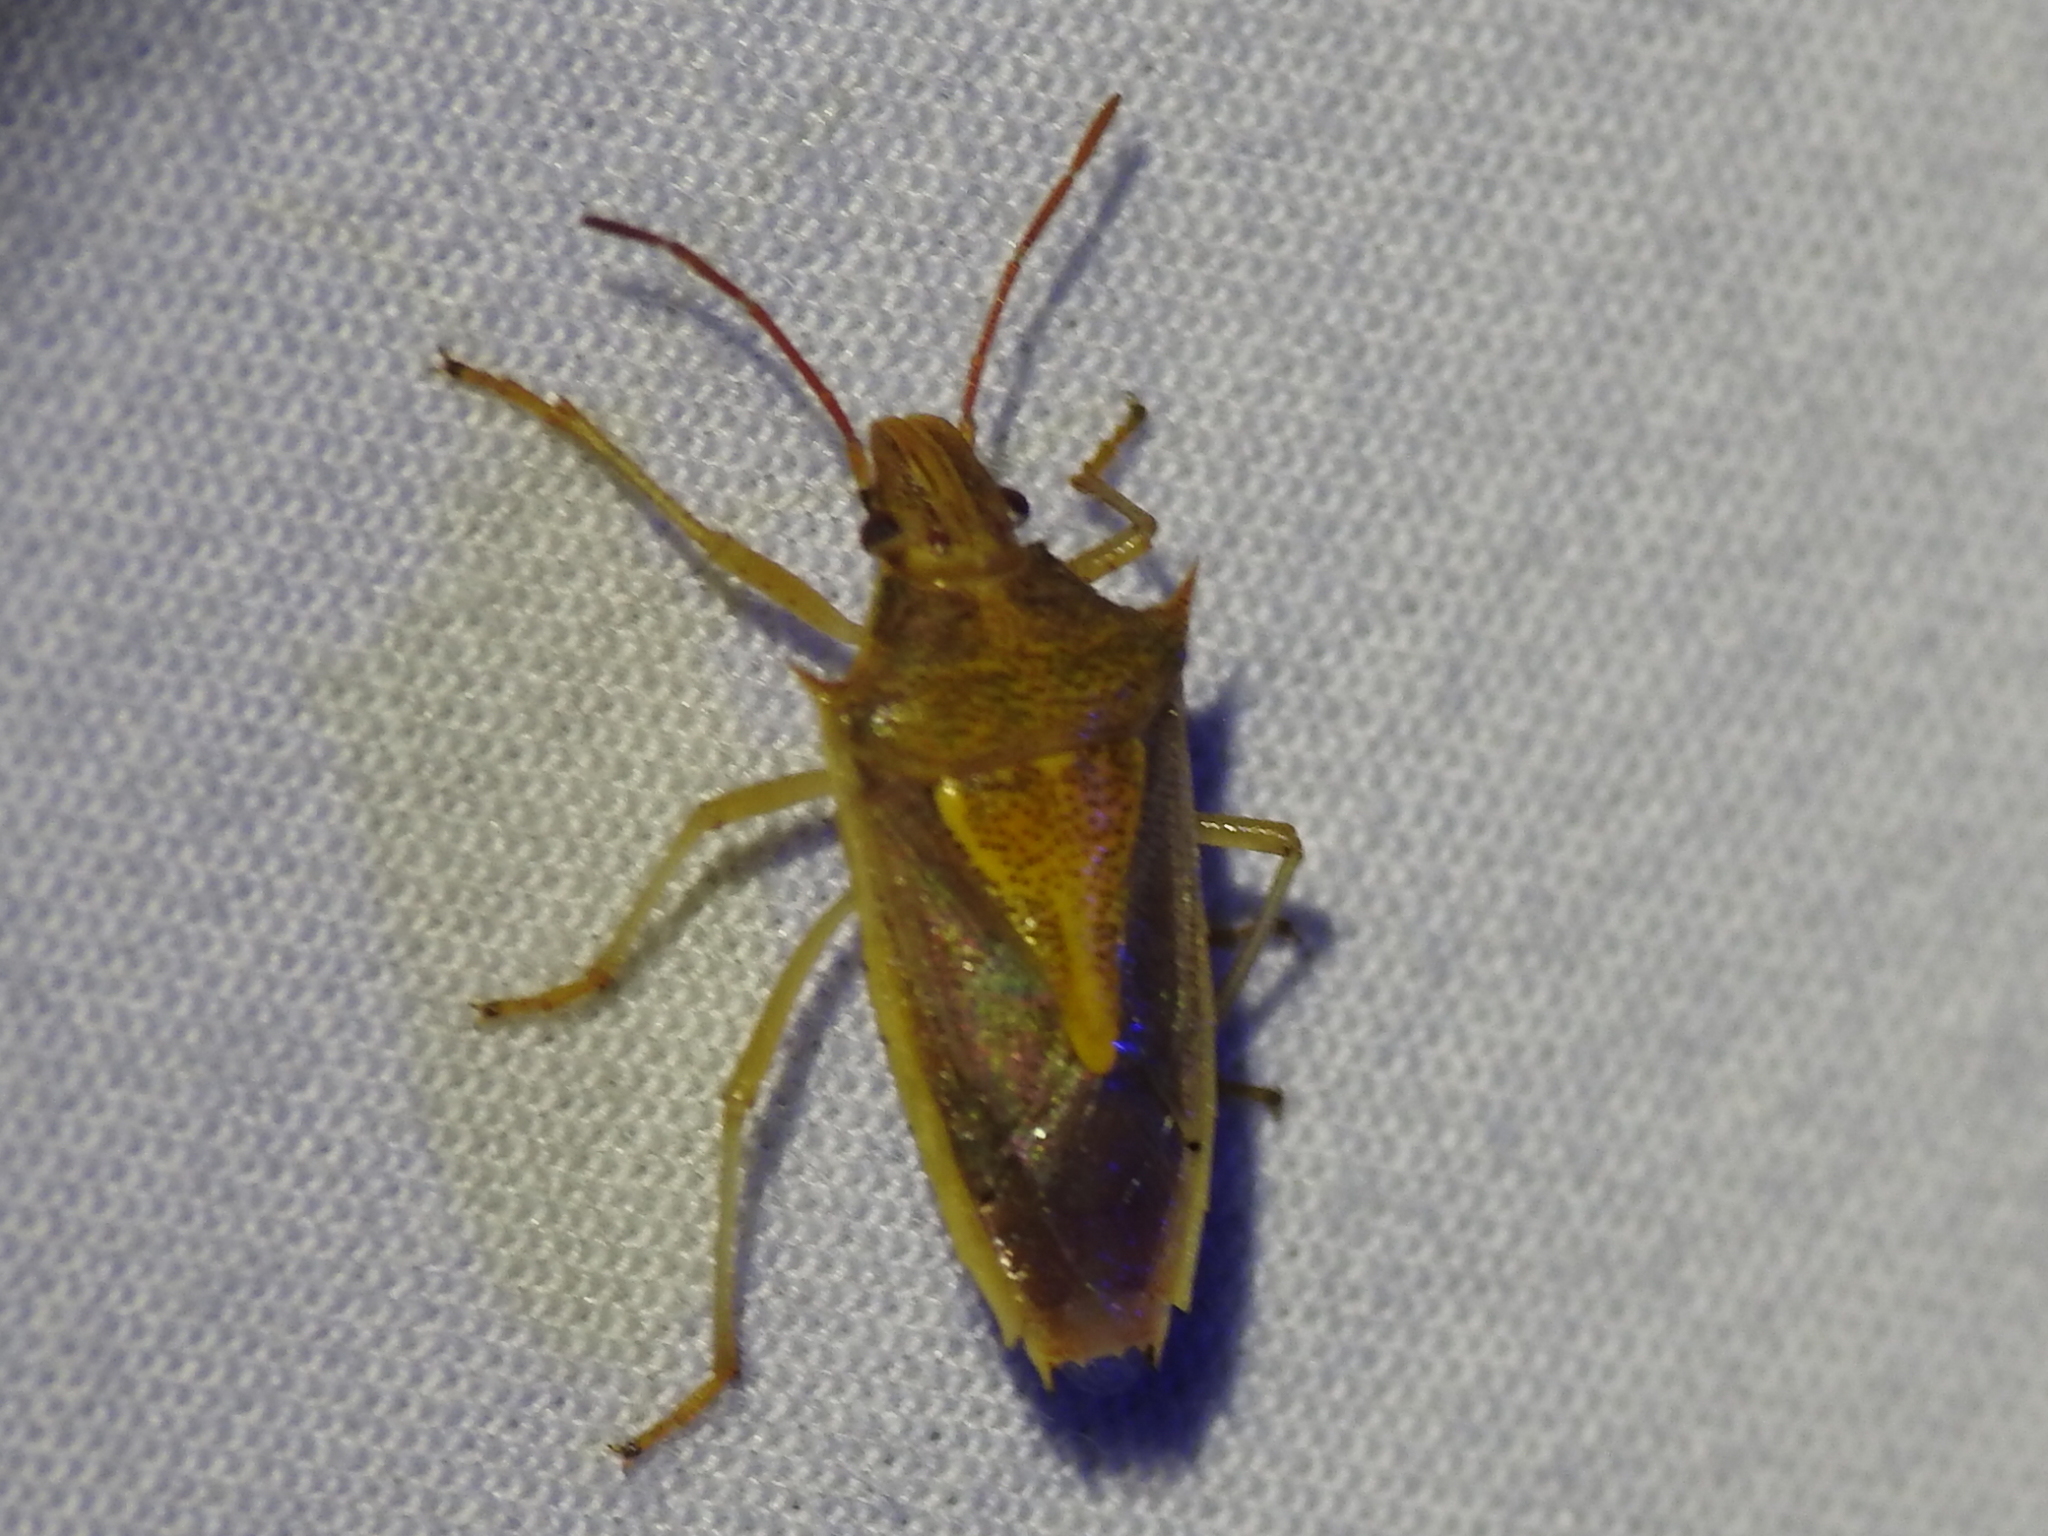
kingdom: Animalia
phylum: Arthropoda
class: Insecta
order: Hemiptera
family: Pentatomidae
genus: Oebalus
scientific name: Oebalus pugnax
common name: Rice stink bug
